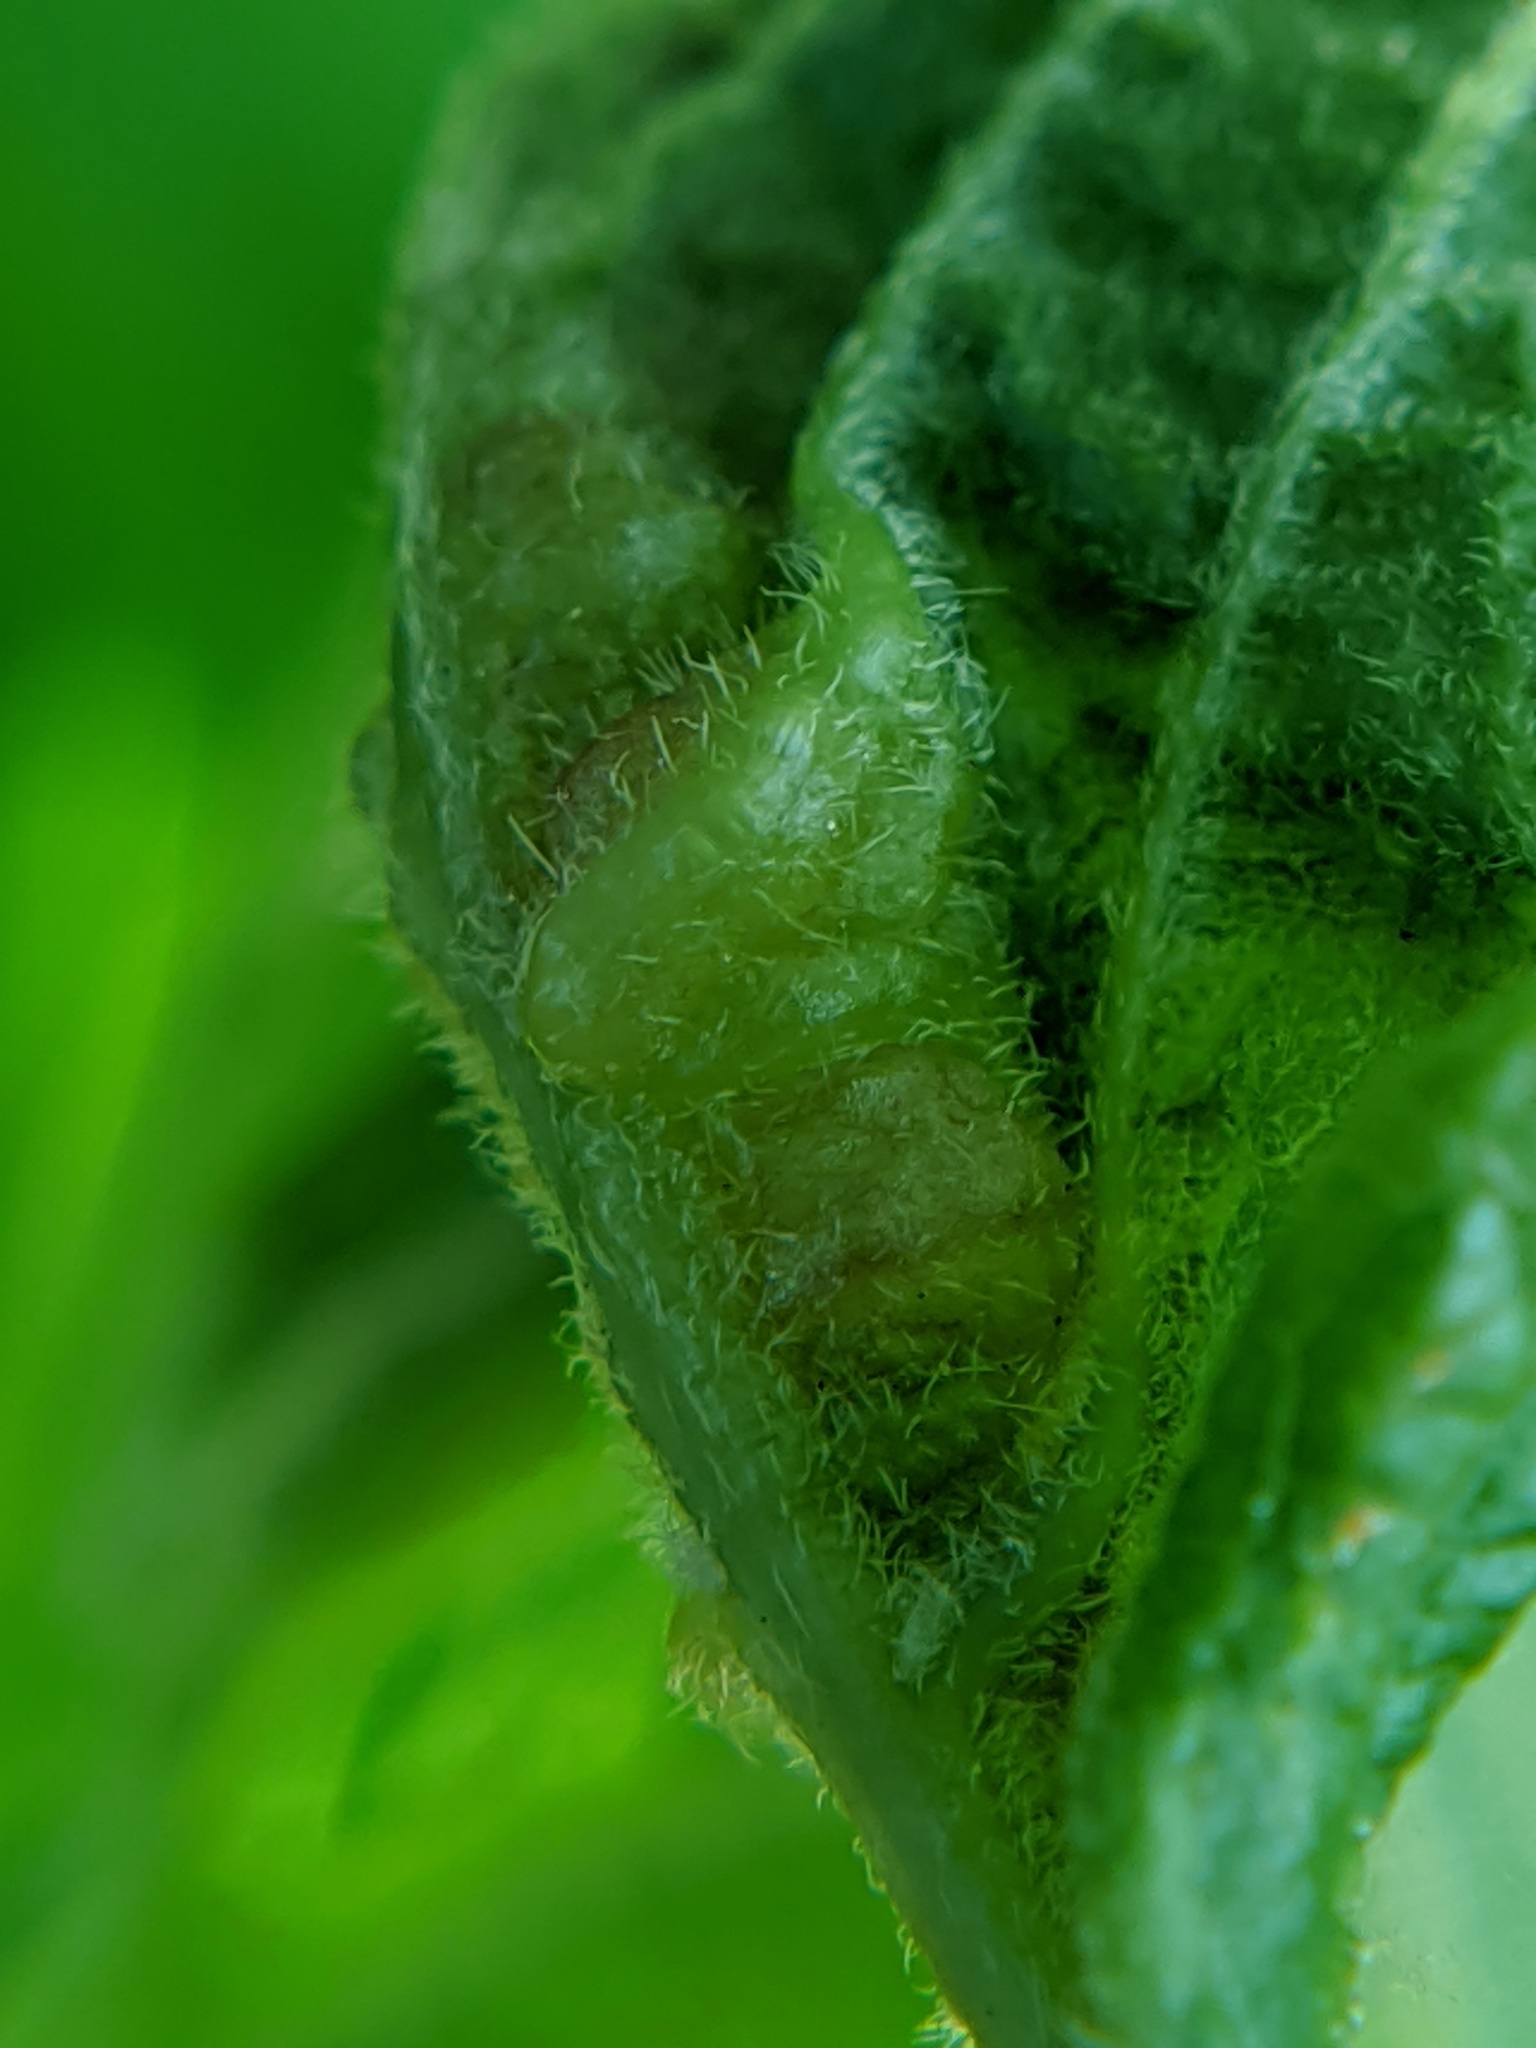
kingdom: Animalia
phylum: Arthropoda
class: Insecta
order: Diptera
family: Cecidomyiidae
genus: Contarinia
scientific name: Contarinia negundinis
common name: Boxelder budgall midge
